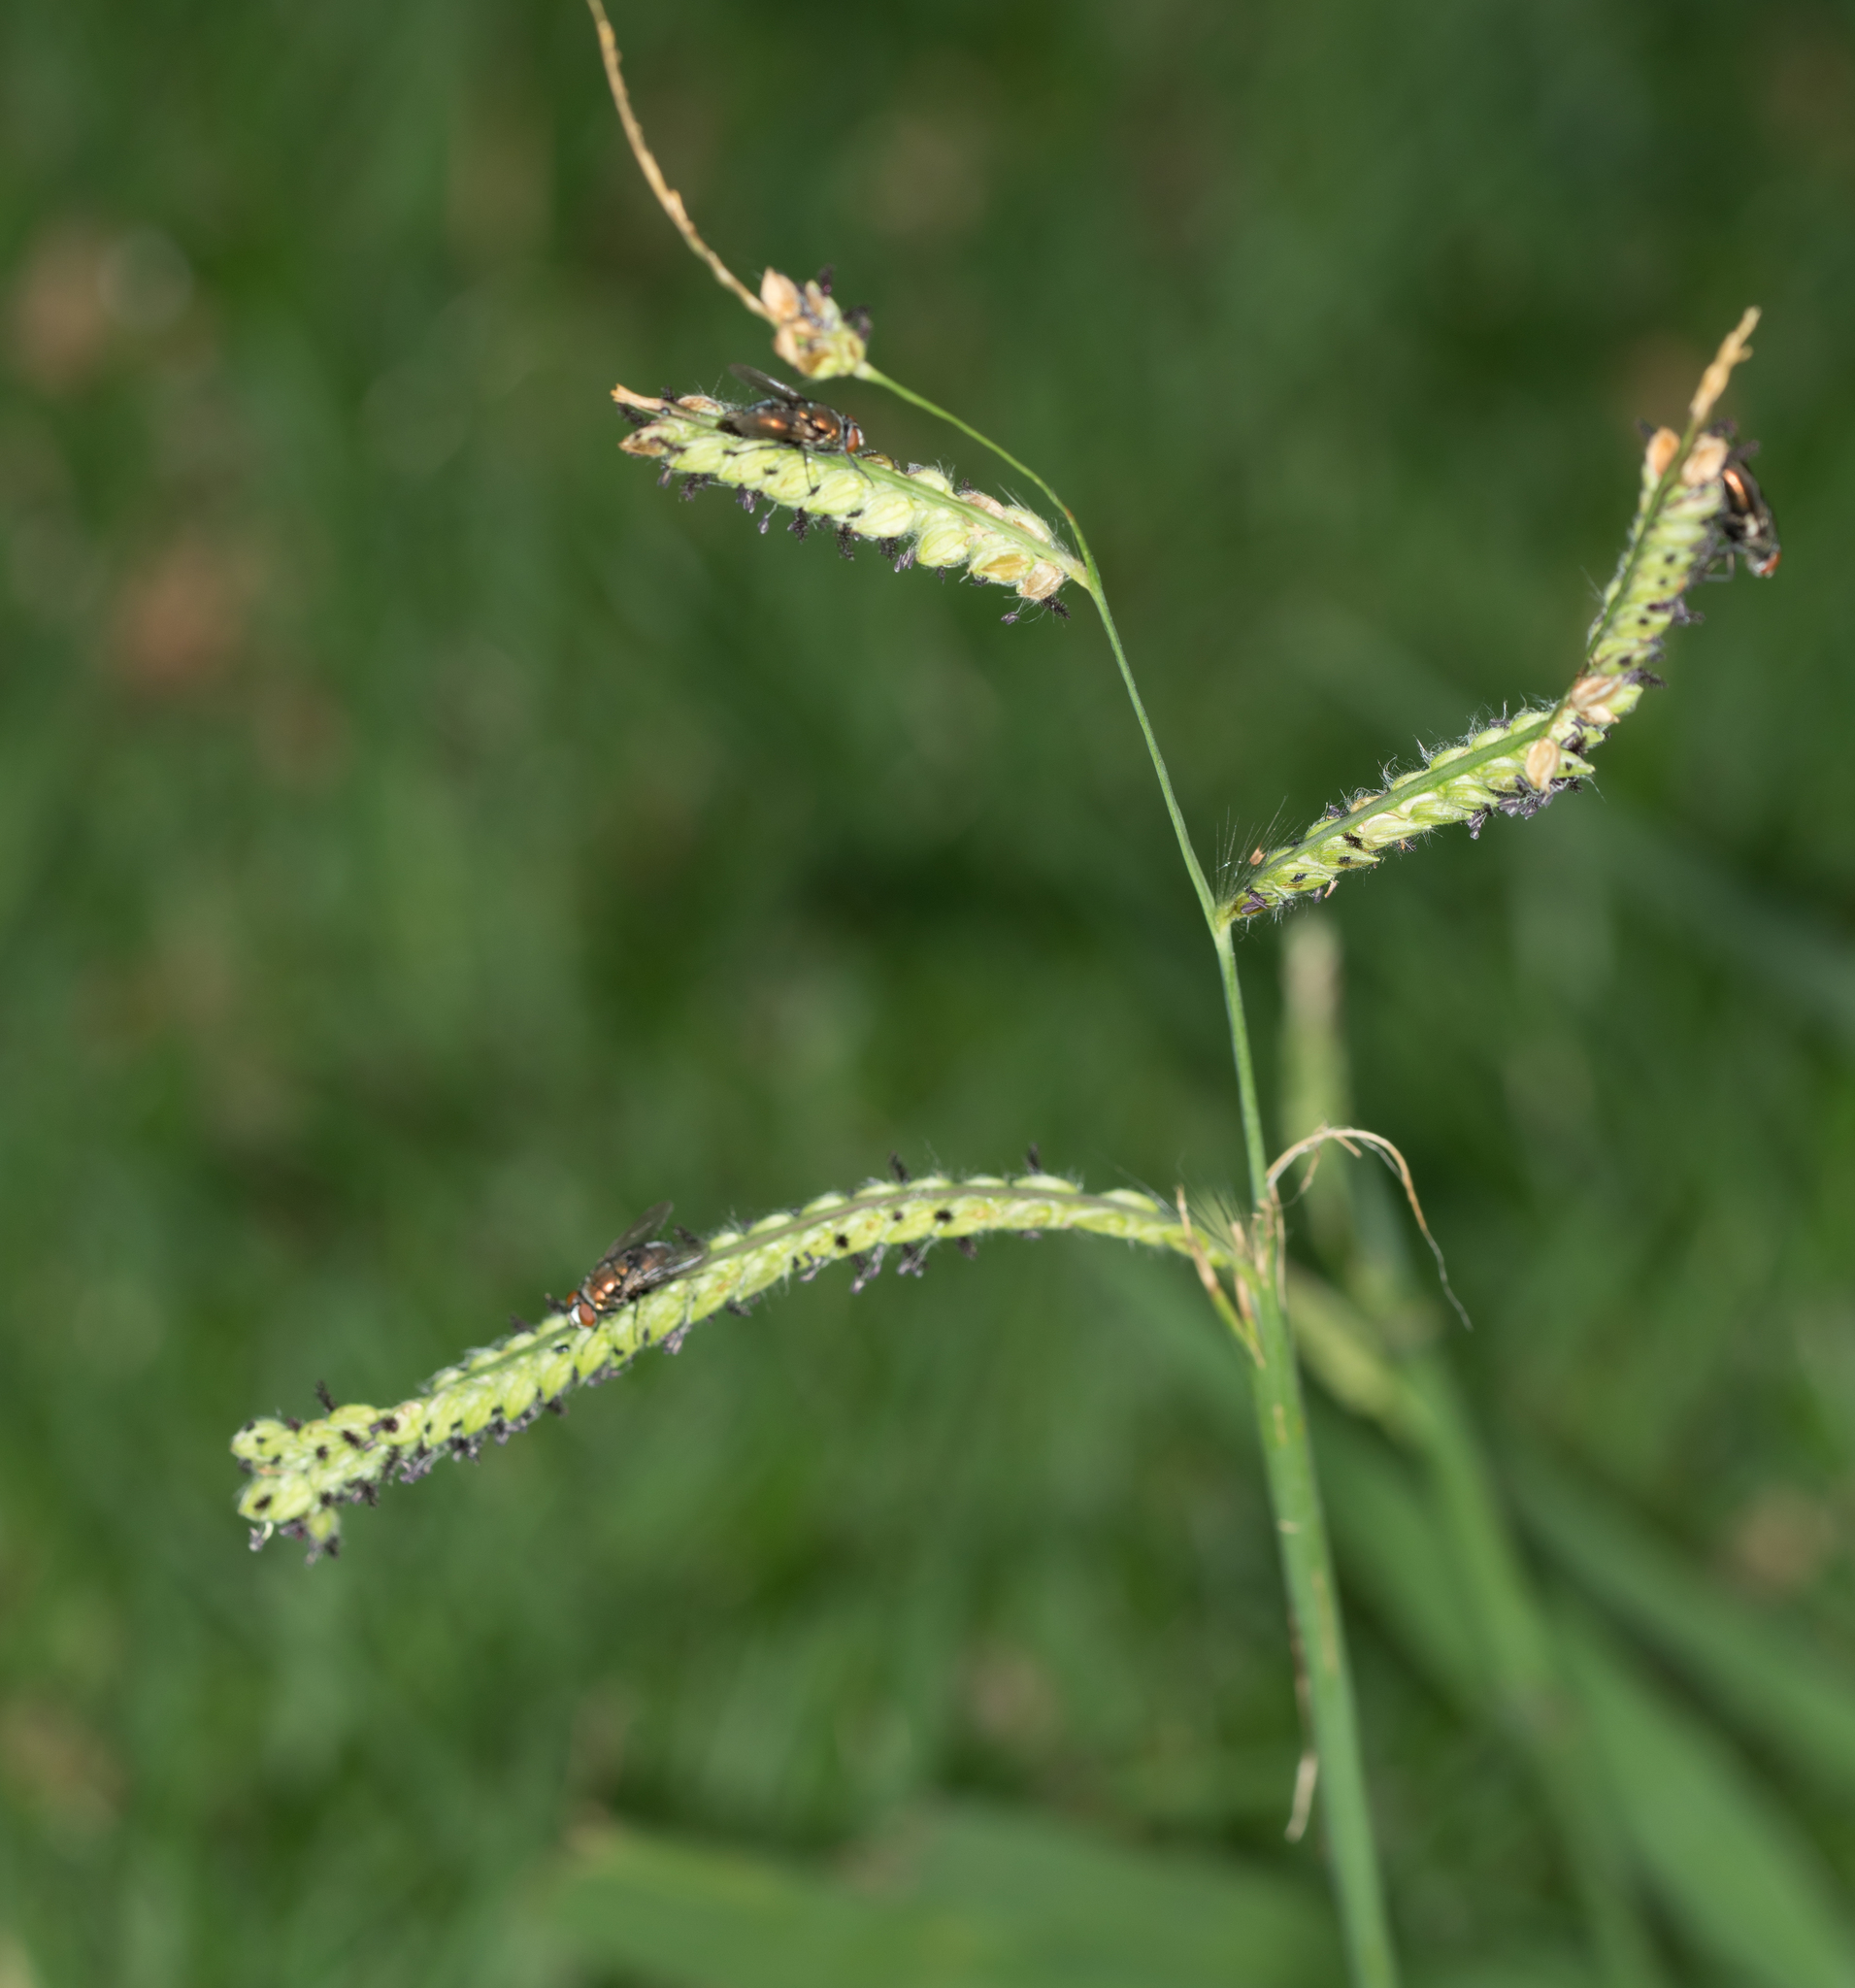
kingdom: Plantae
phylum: Tracheophyta
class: Liliopsida
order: Poales
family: Poaceae
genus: Paspalum
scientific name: Paspalum dilatatum
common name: Dallisgrass
